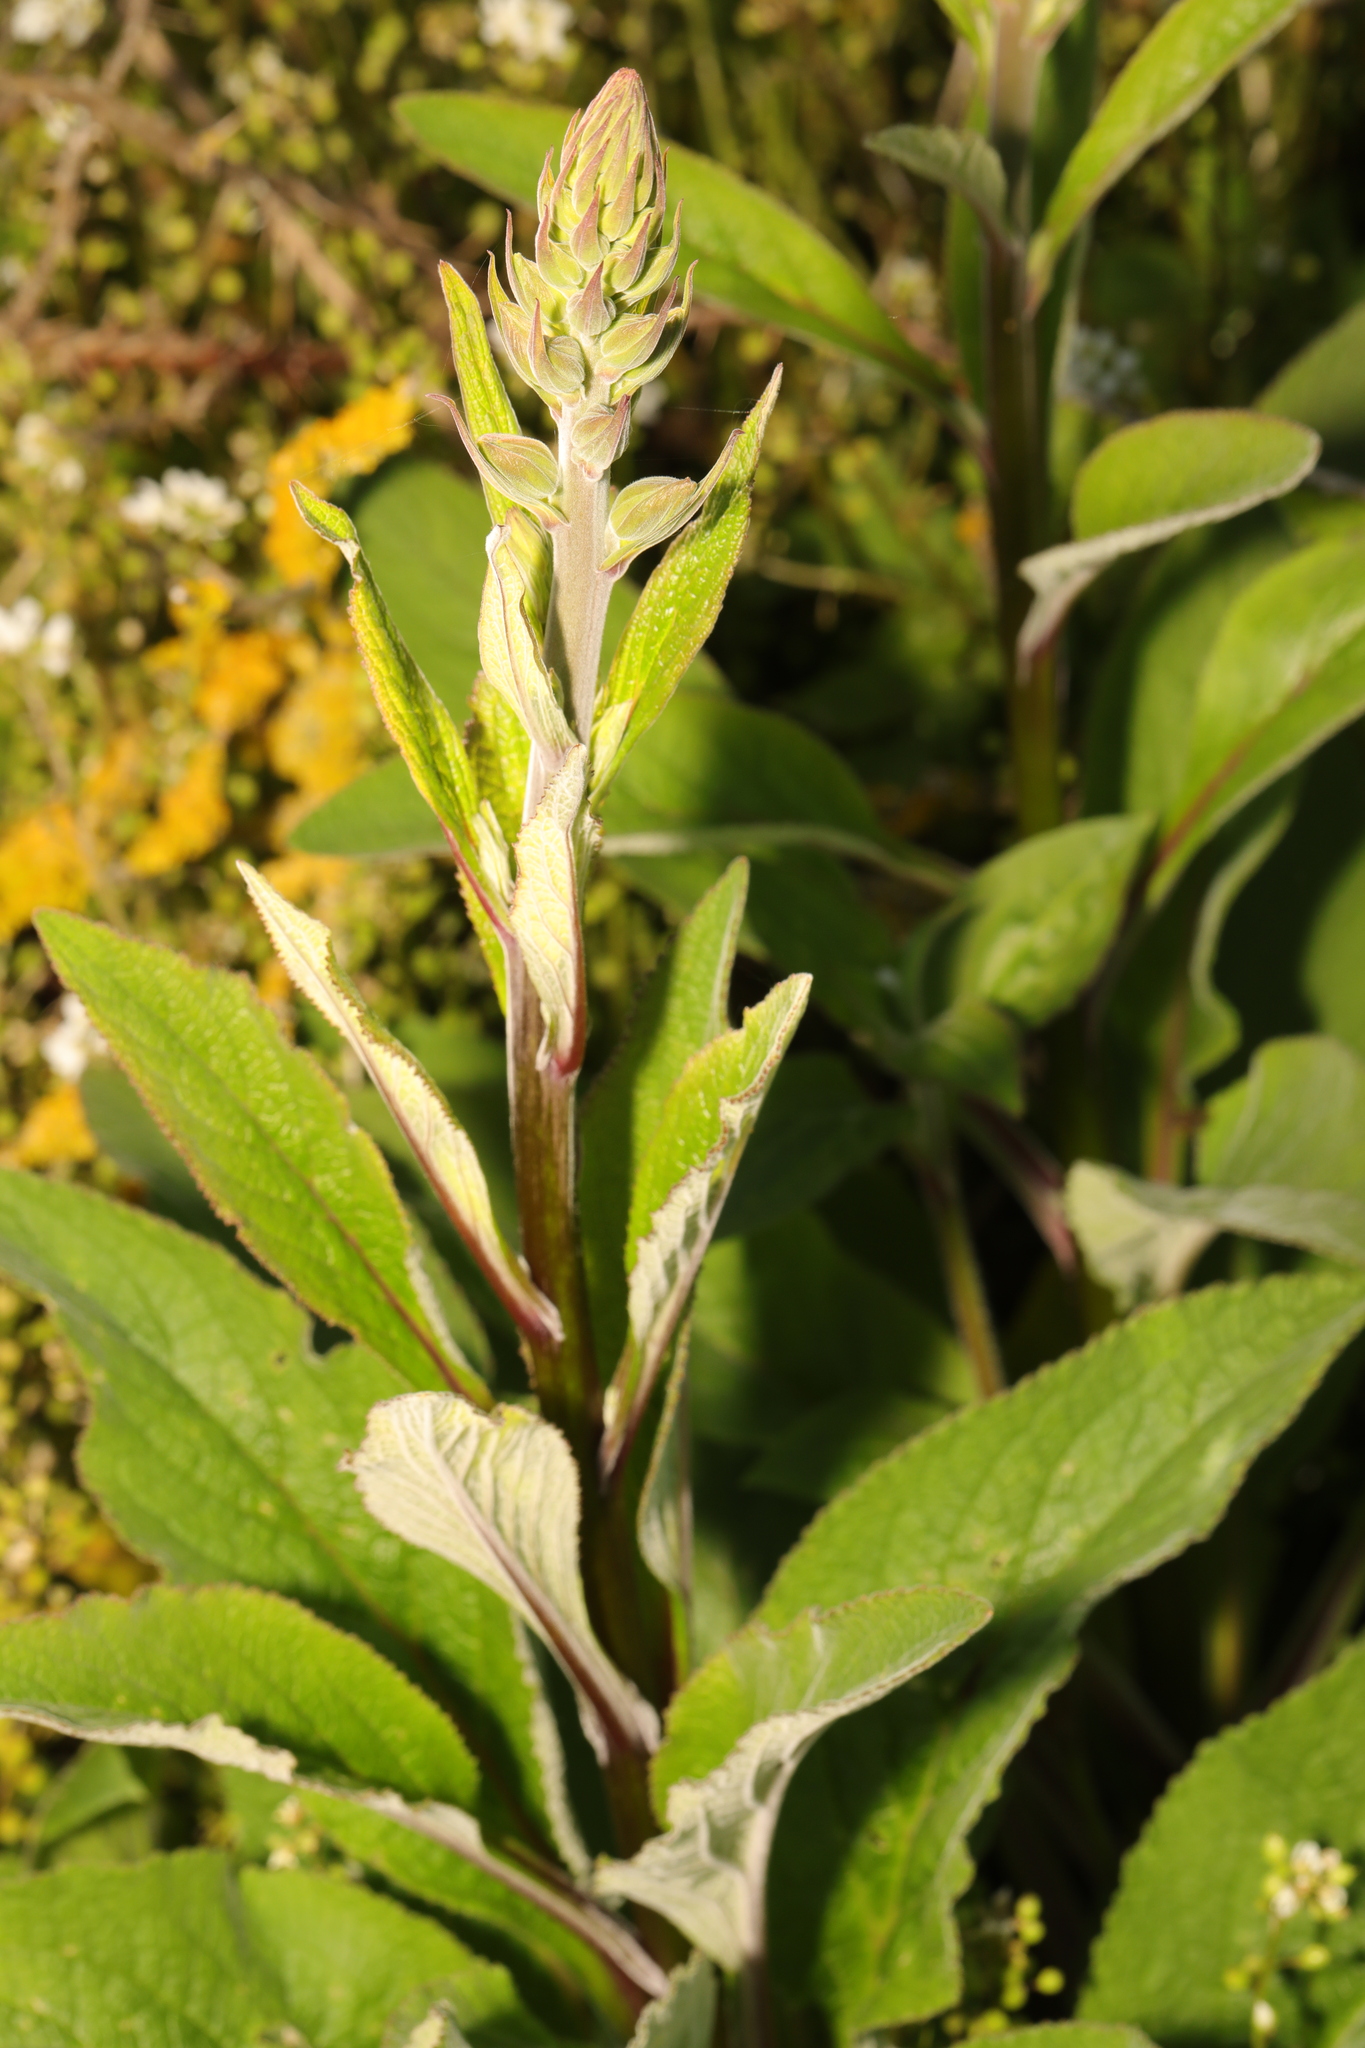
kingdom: Plantae
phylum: Tracheophyta
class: Magnoliopsida
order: Lamiales
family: Plantaginaceae
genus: Digitalis
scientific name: Digitalis purpurea
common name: Foxglove
